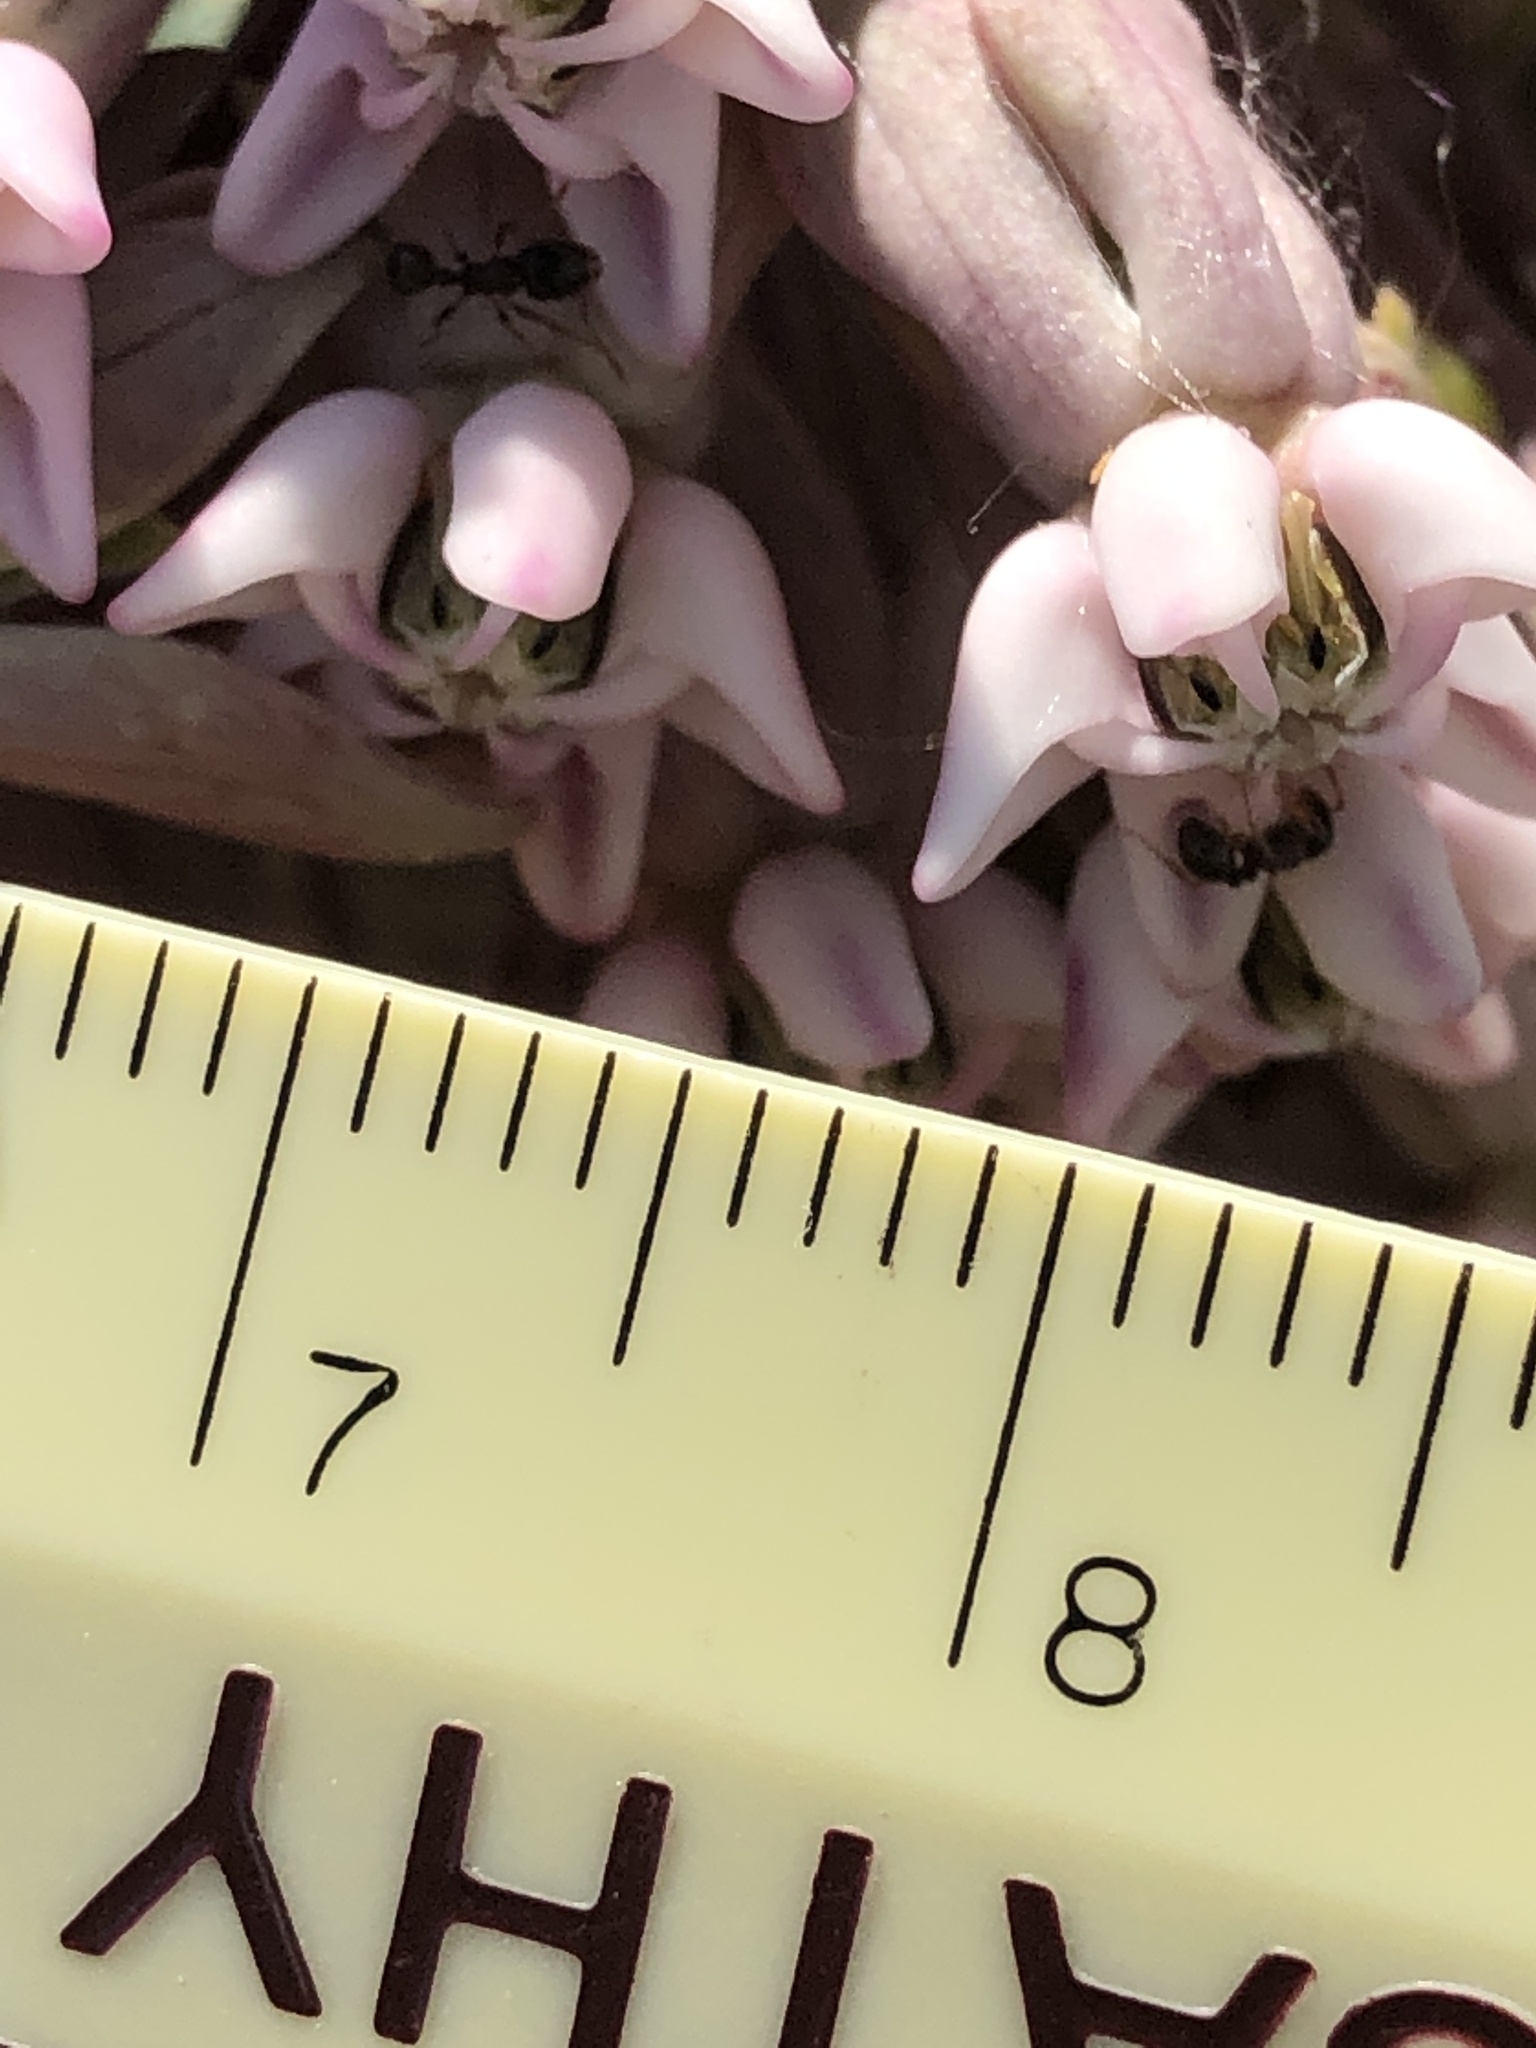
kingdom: Plantae
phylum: Tracheophyta
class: Magnoliopsida
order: Gentianales
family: Apocynaceae
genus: Asclepias
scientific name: Asclepias syriaca
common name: Common milkweed
